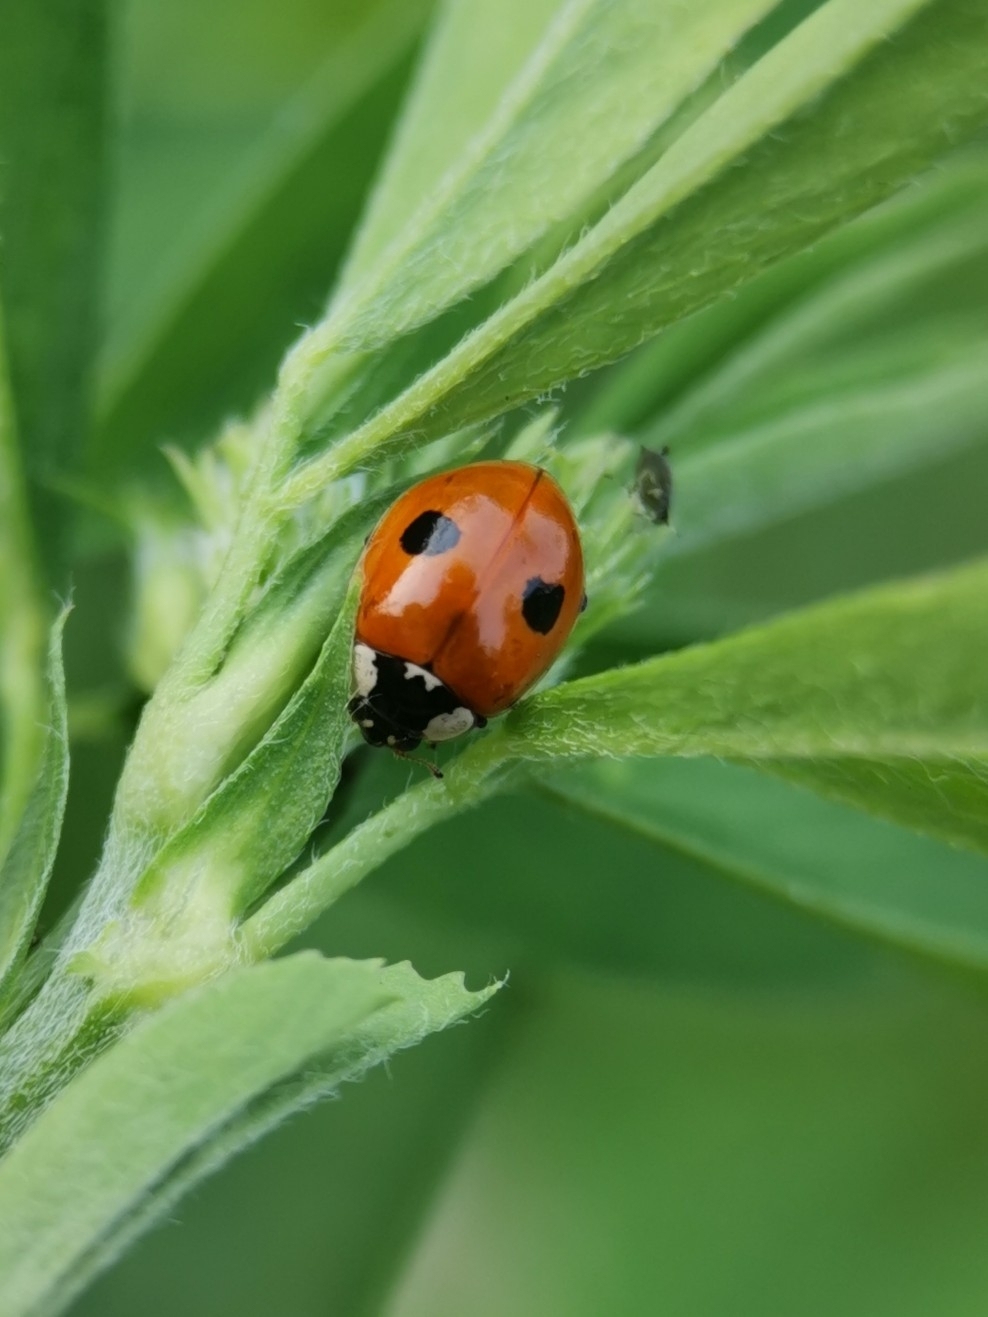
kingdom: Animalia
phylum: Arthropoda
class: Insecta
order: Coleoptera
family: Coccinellidae
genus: Adalia
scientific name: Adalia bipunctata
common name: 2-spot ladybird
